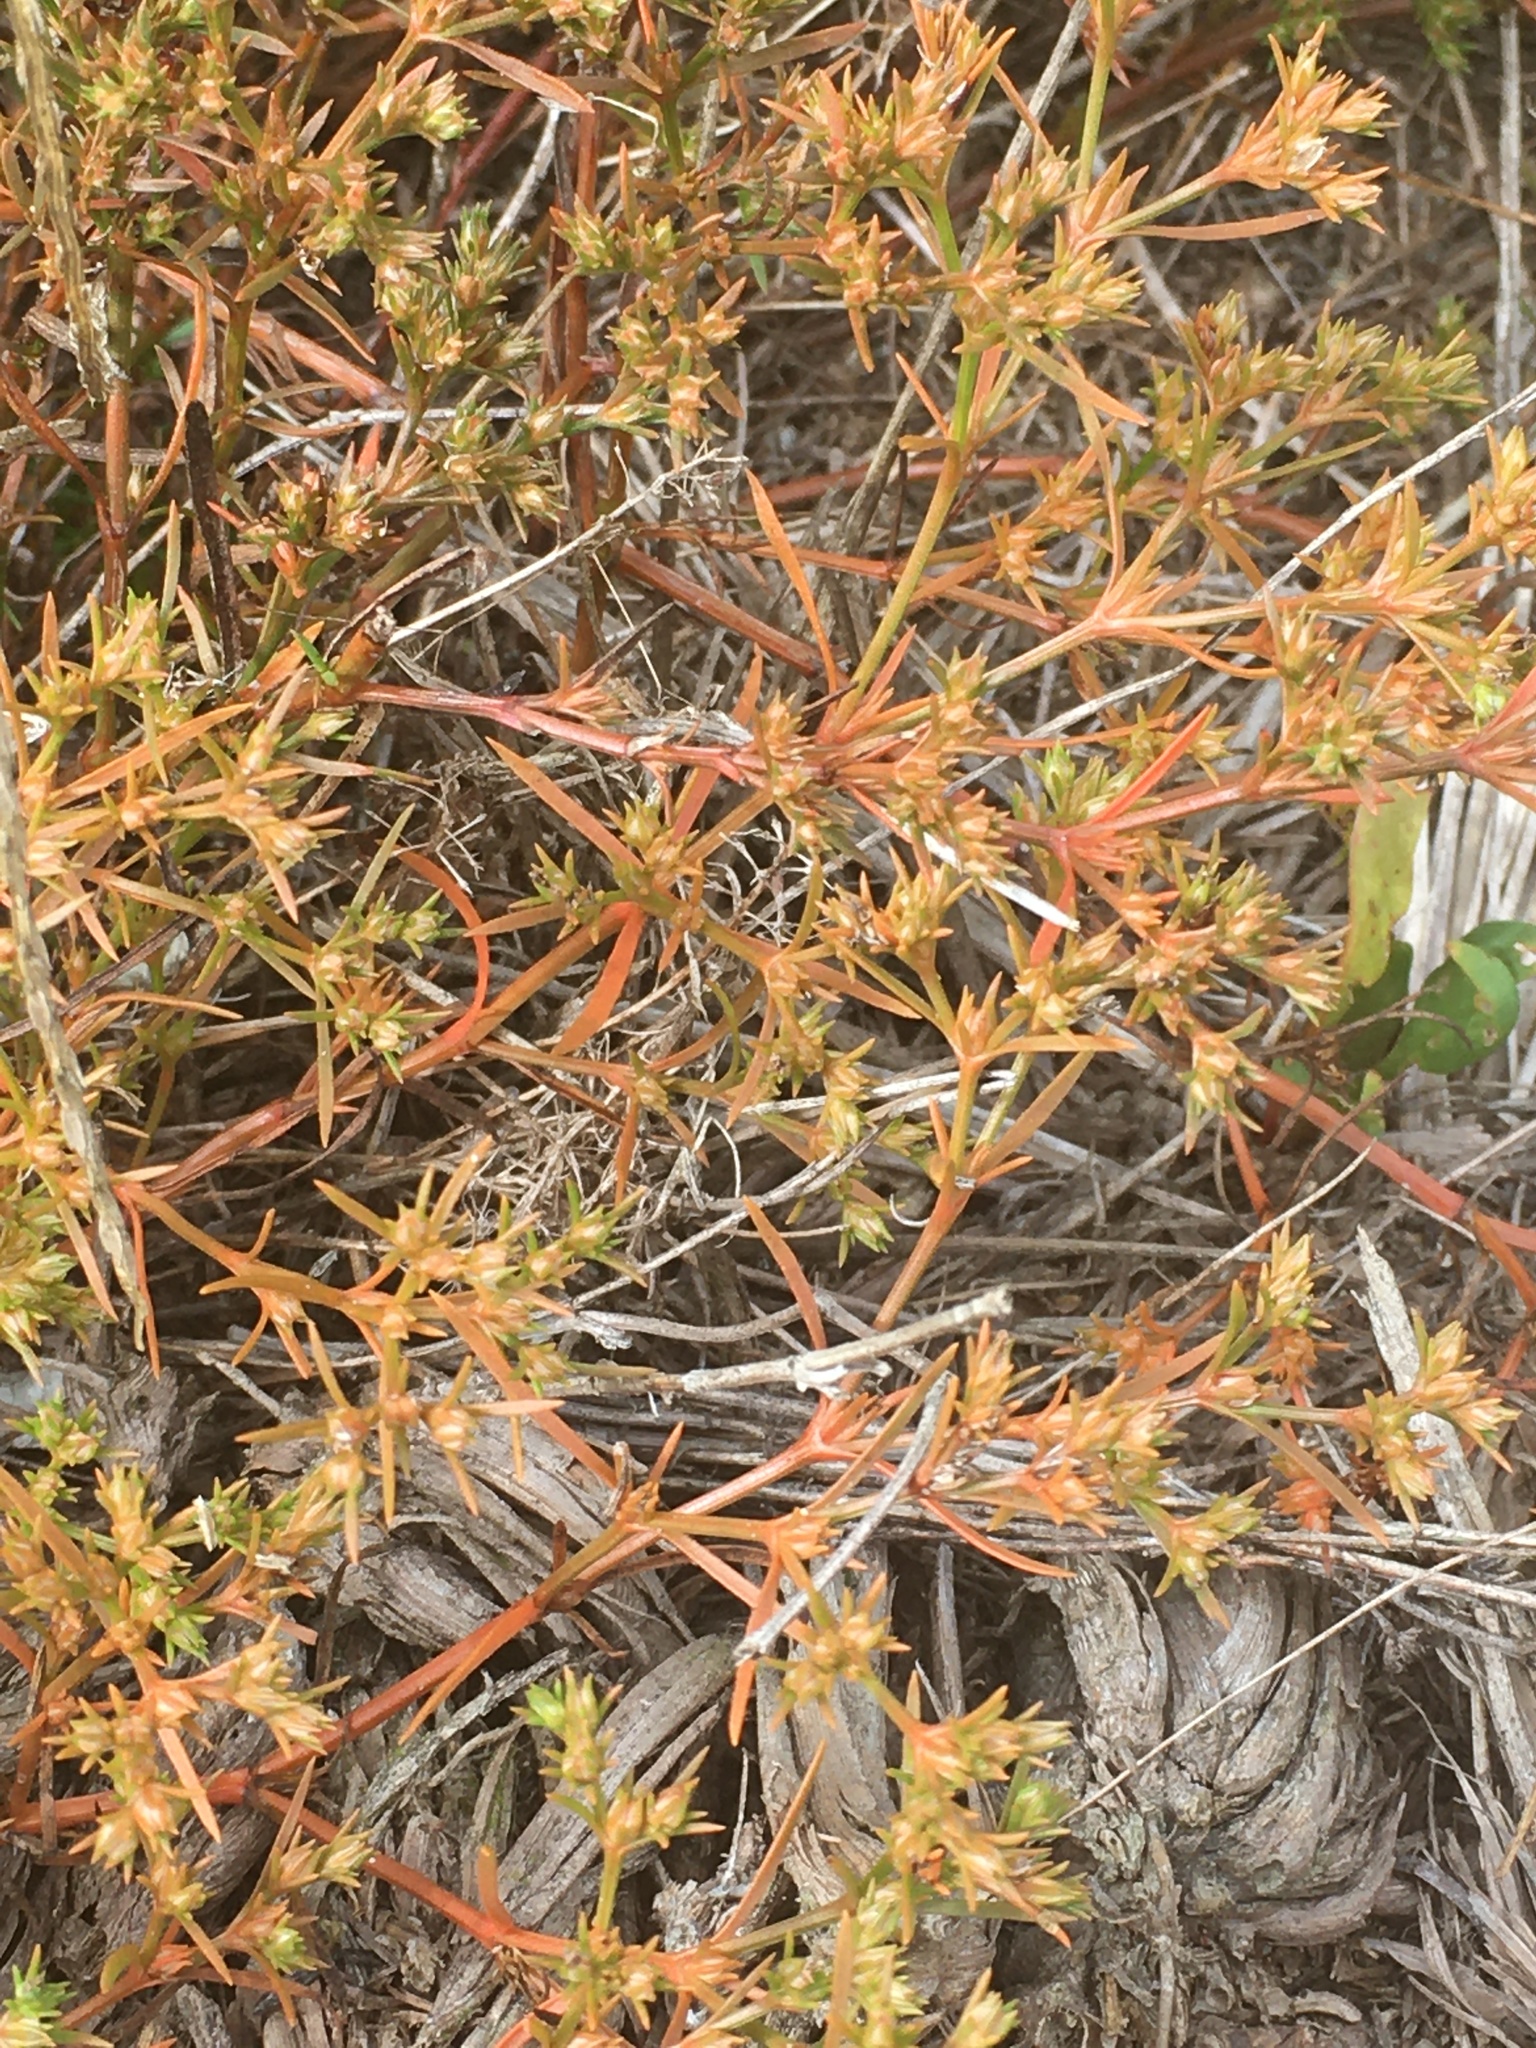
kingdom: Plantae
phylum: Tracheophyta
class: Magnoliopsida
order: Lamiales
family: Tetrachondraceae
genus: Polypremum
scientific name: Polypremum procumbens
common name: Juniper-leaf
